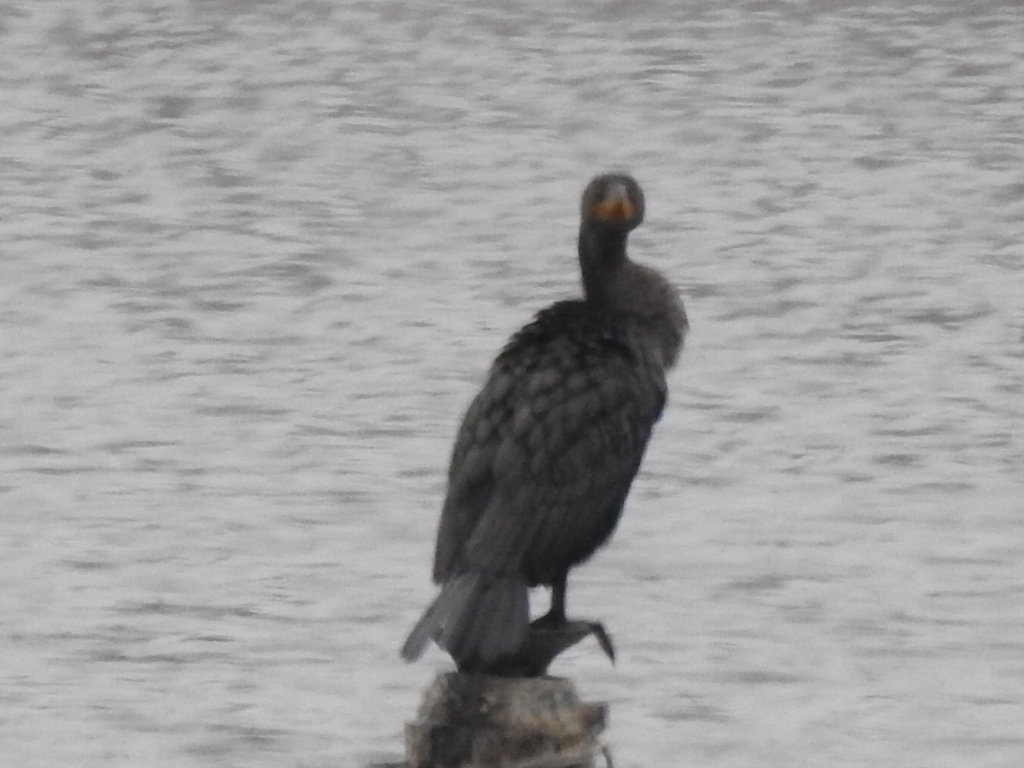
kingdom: Animalia
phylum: Chordata
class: Aves
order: Suliformes
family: Phalacrocoracidae
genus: Phalacrocorax
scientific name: Phalacrocorax auritus
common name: Double-crested cormorant
